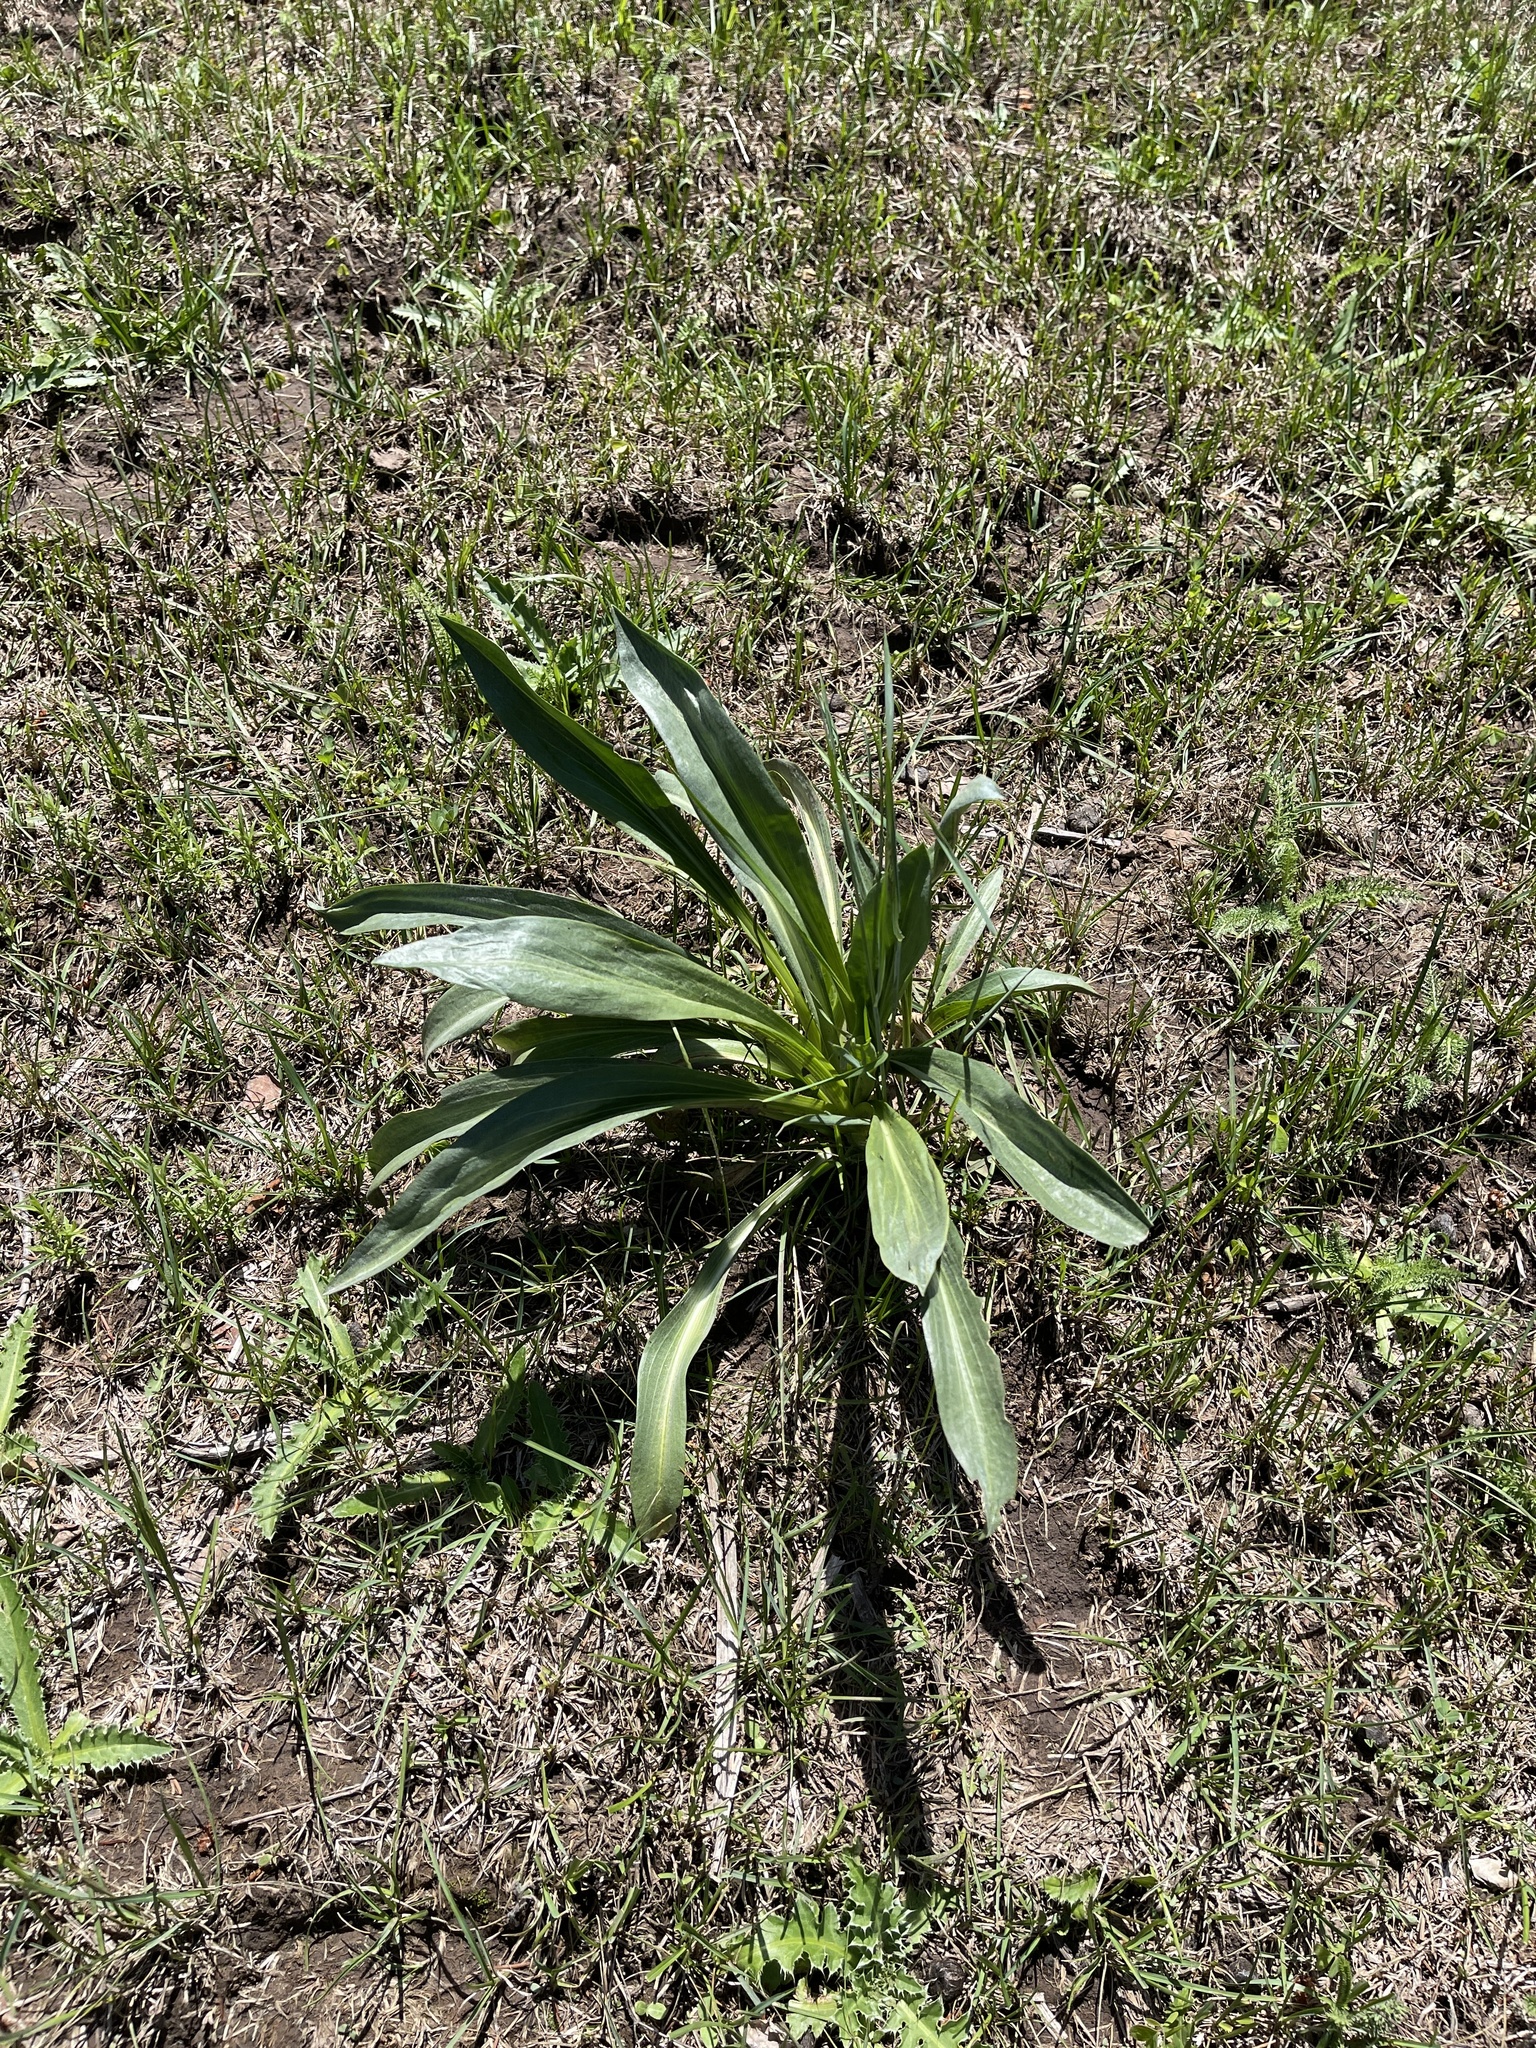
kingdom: Plantae
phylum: Tracheophyta
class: Magnoliopsida
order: Gentianales
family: Gentianaceae
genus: Frasera
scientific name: Frasera speciosa
